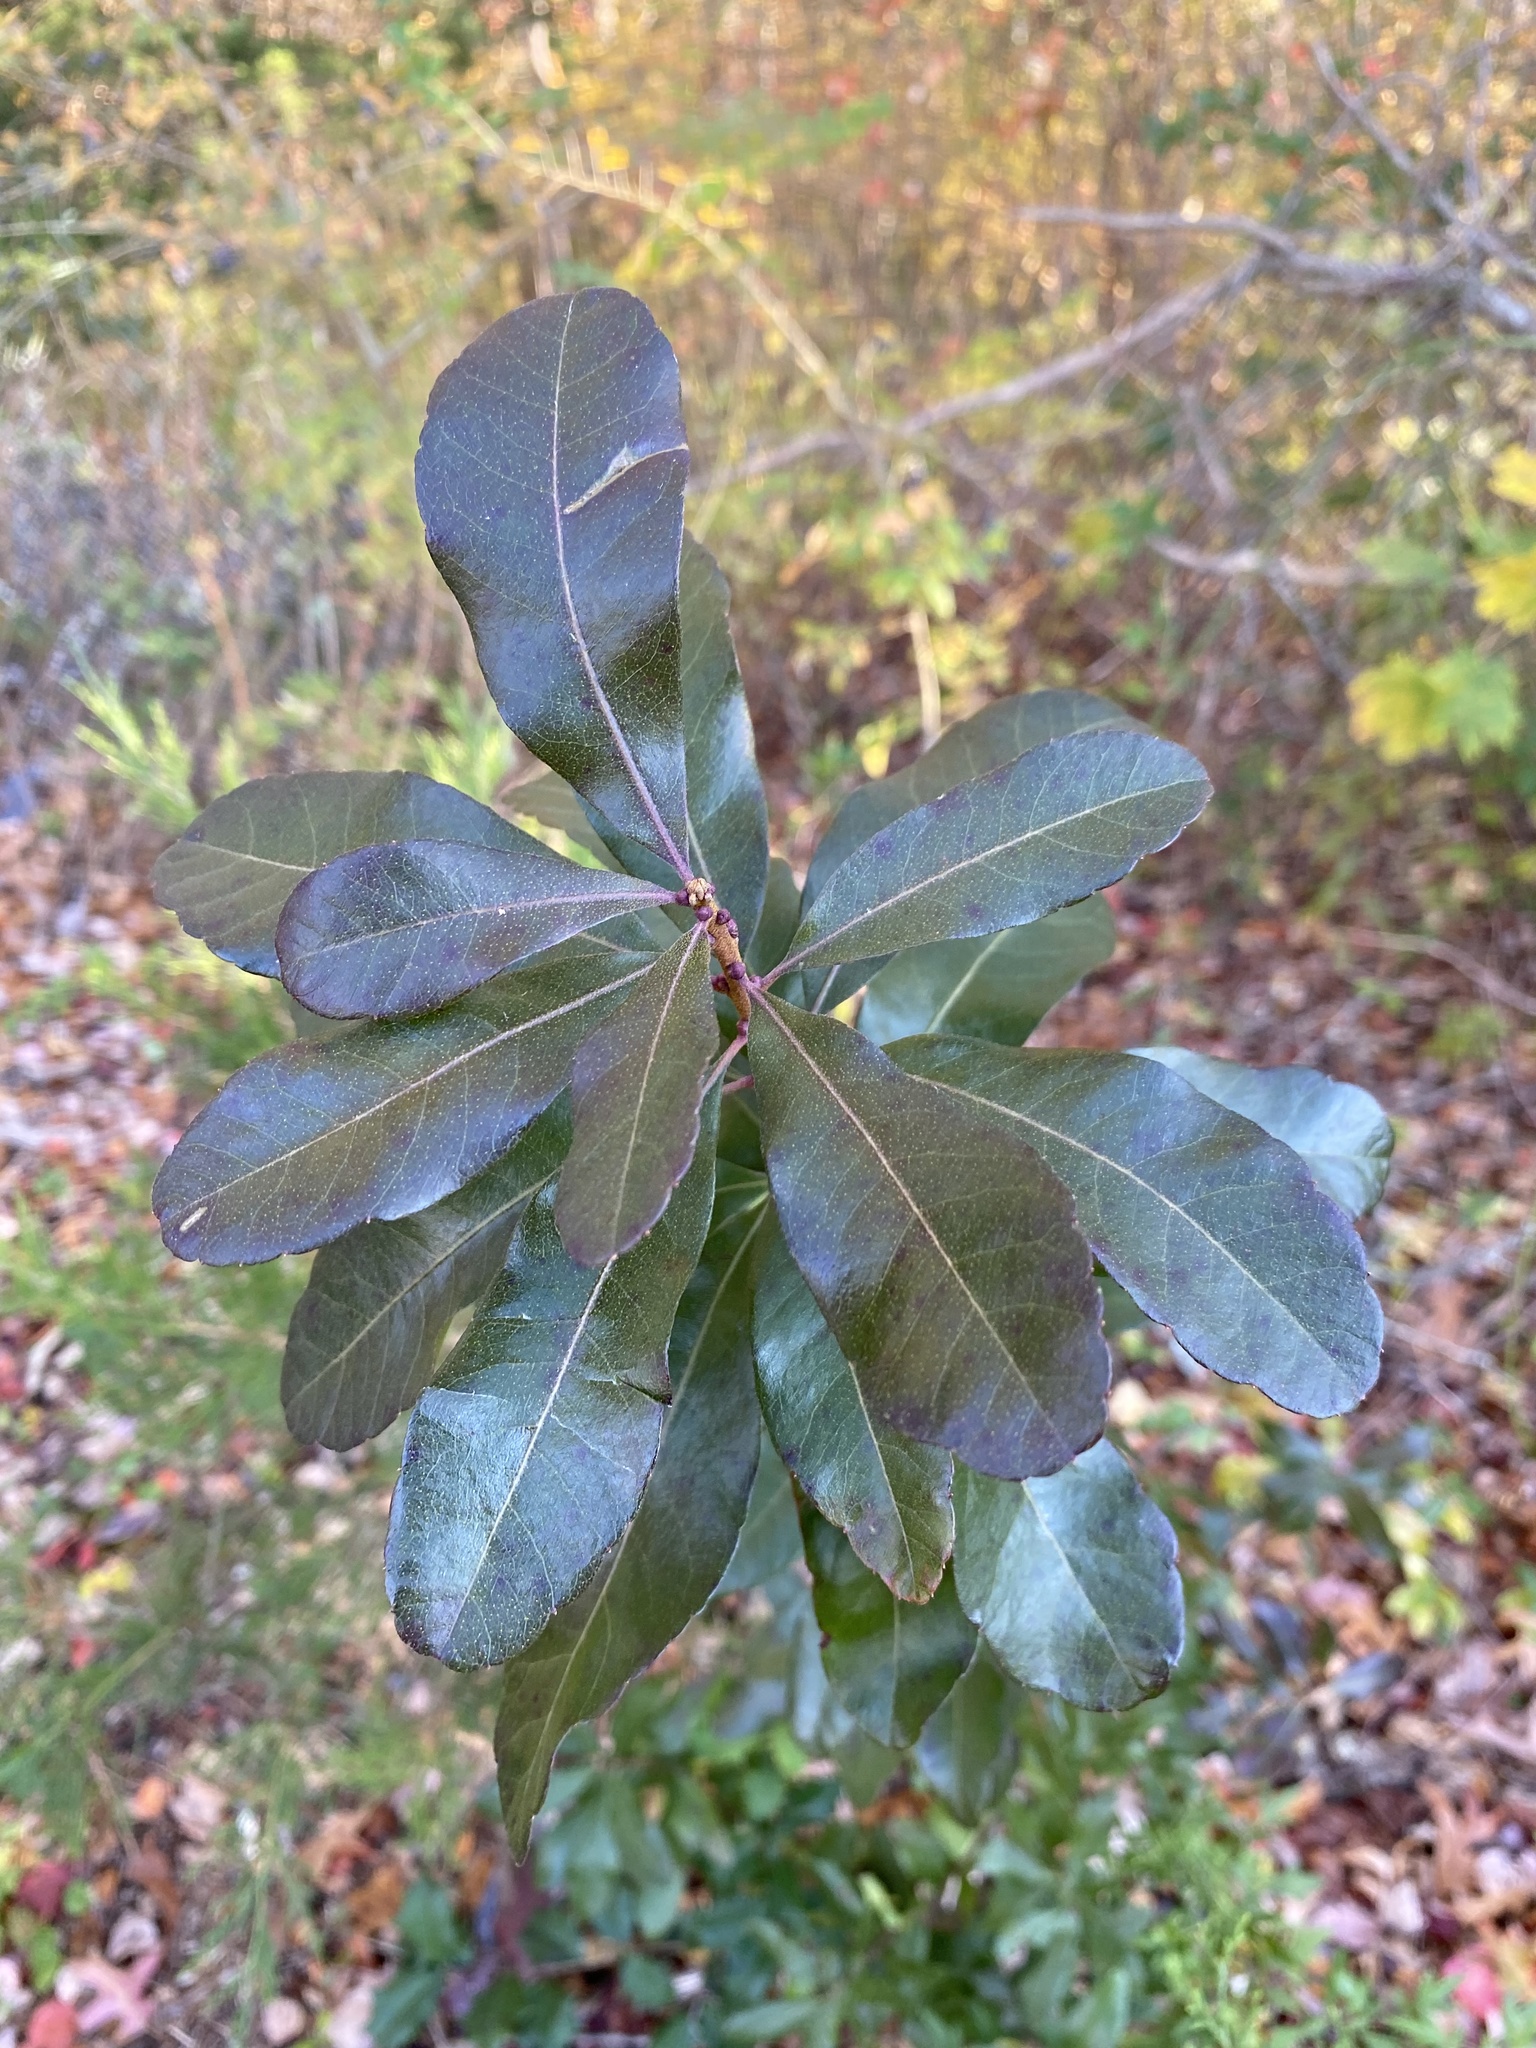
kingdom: Plantae
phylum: Tracheophyta
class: Magnoliopsida
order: Fagales
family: Myricaceae
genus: Morella
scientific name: Morella pensylvanica
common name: Northern bayberry
